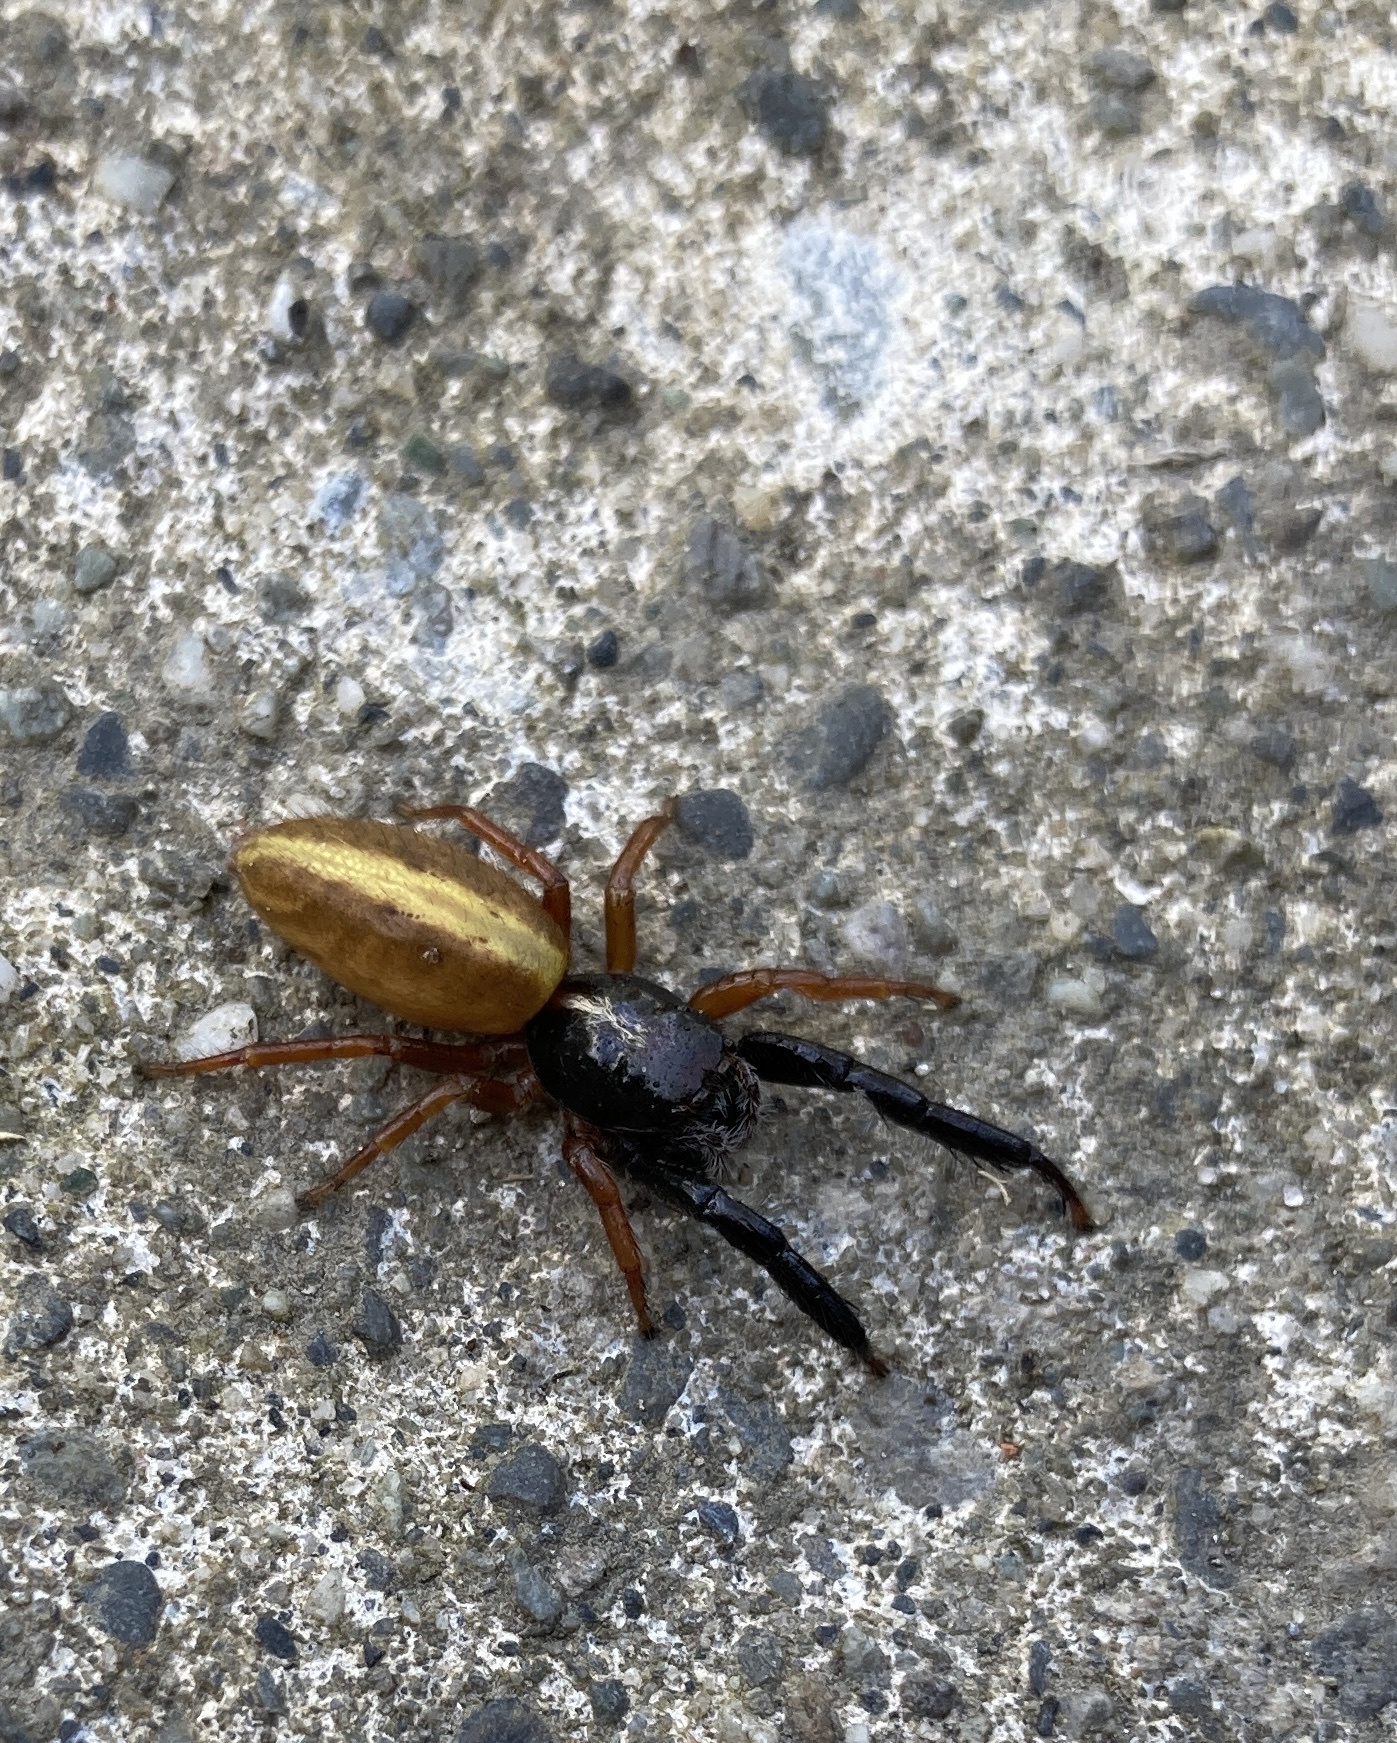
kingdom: Animalia
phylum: Arthropoda
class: Arachnida
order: Araneae
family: Salticidae
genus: Trite
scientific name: Trite planiceps
